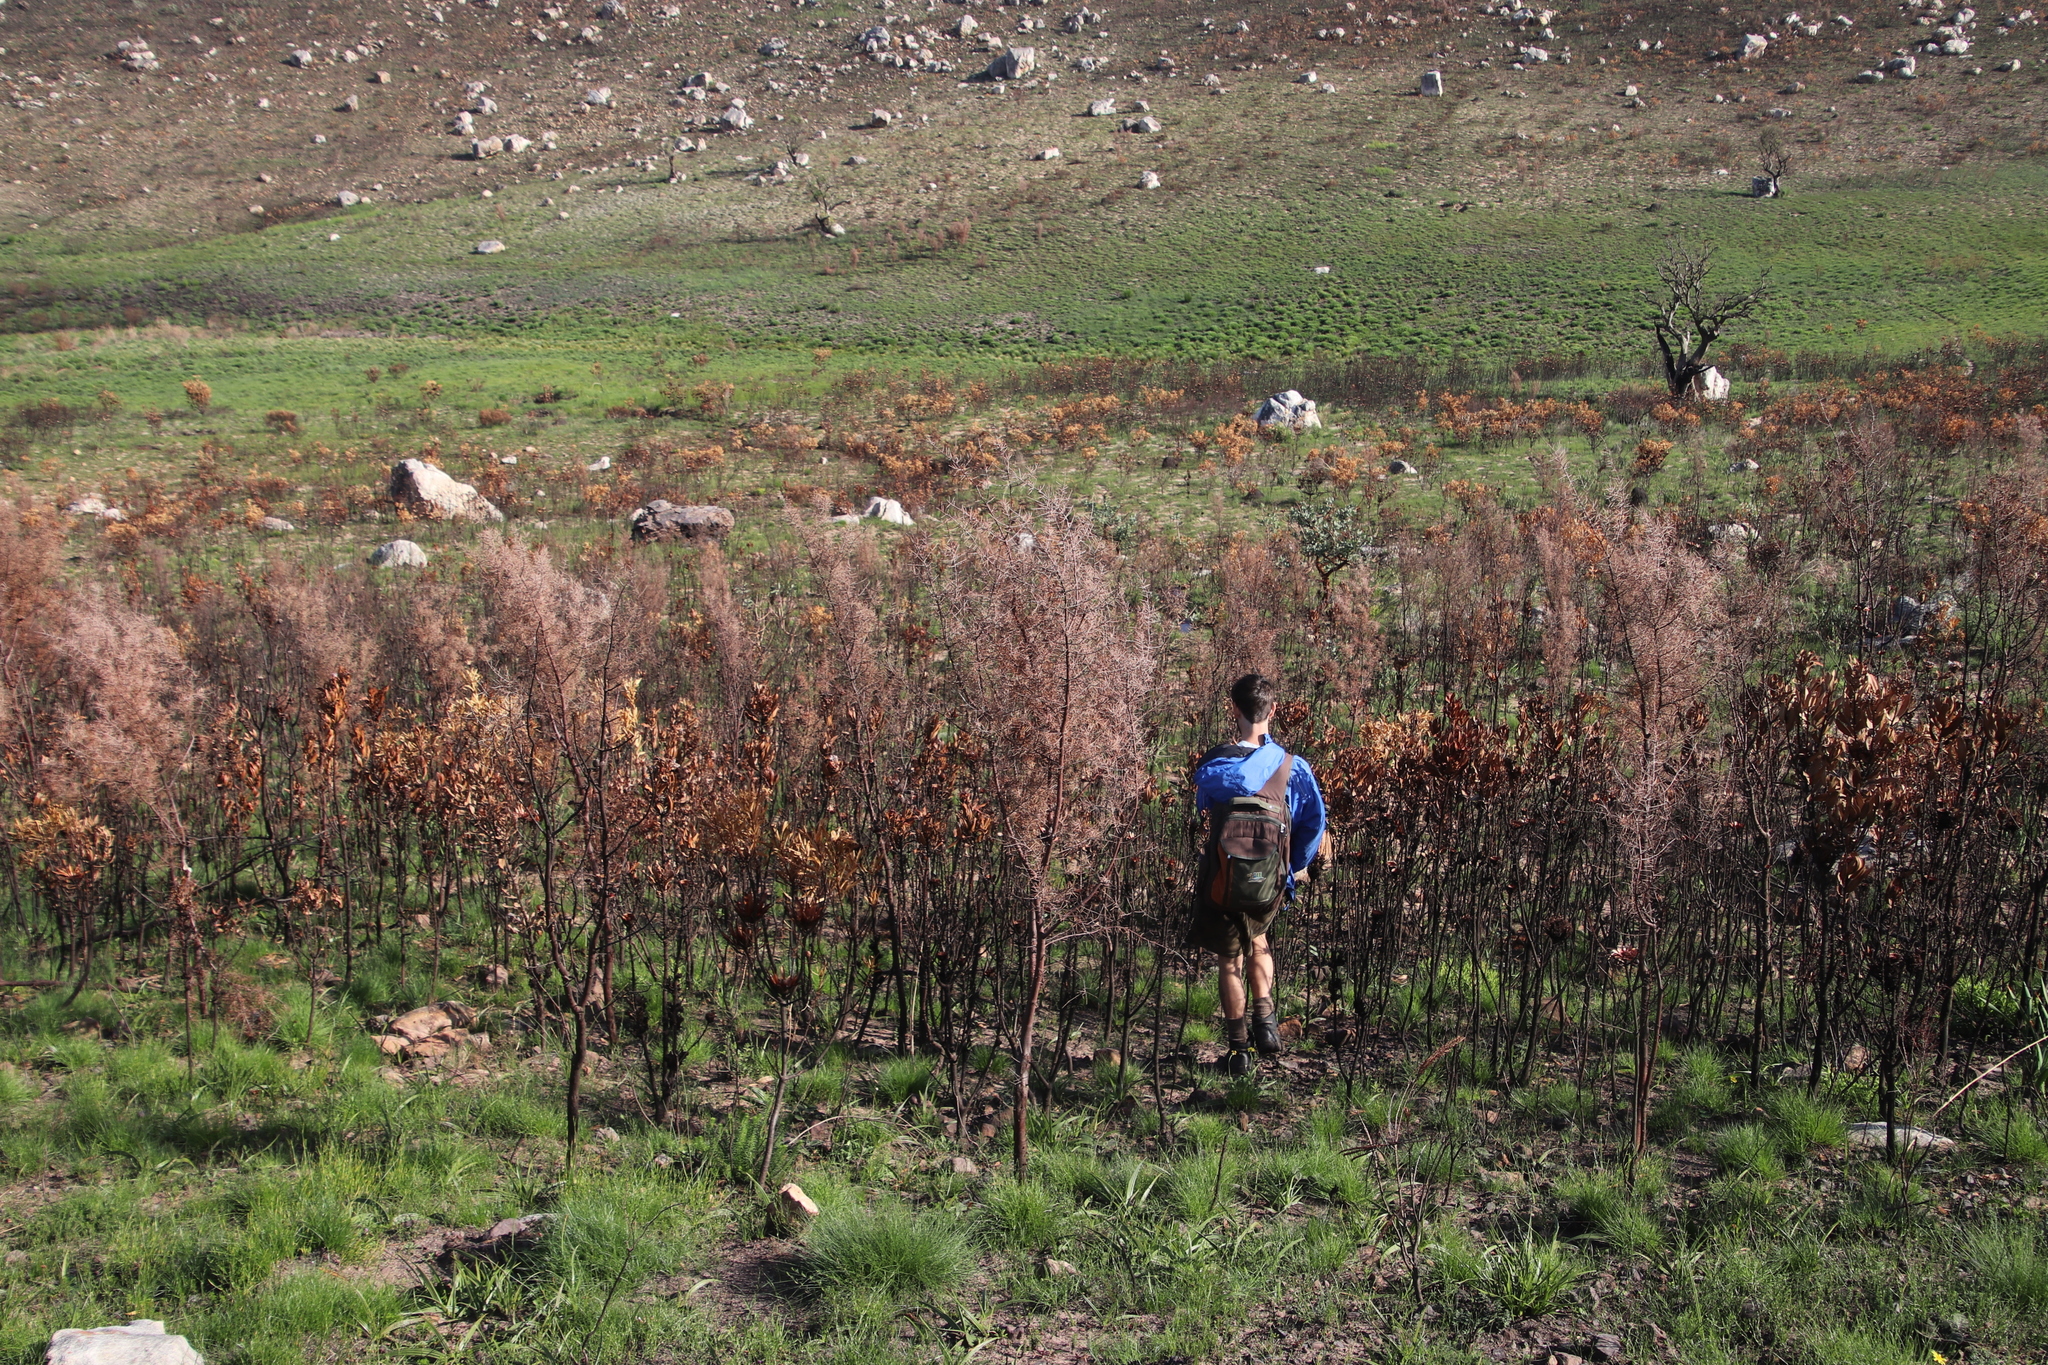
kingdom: Plantae
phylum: Tracheophyta
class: Magnoliopsida
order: Proteales
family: Proteaceae
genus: Hakea
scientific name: Hakea sericea
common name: Needle bush
